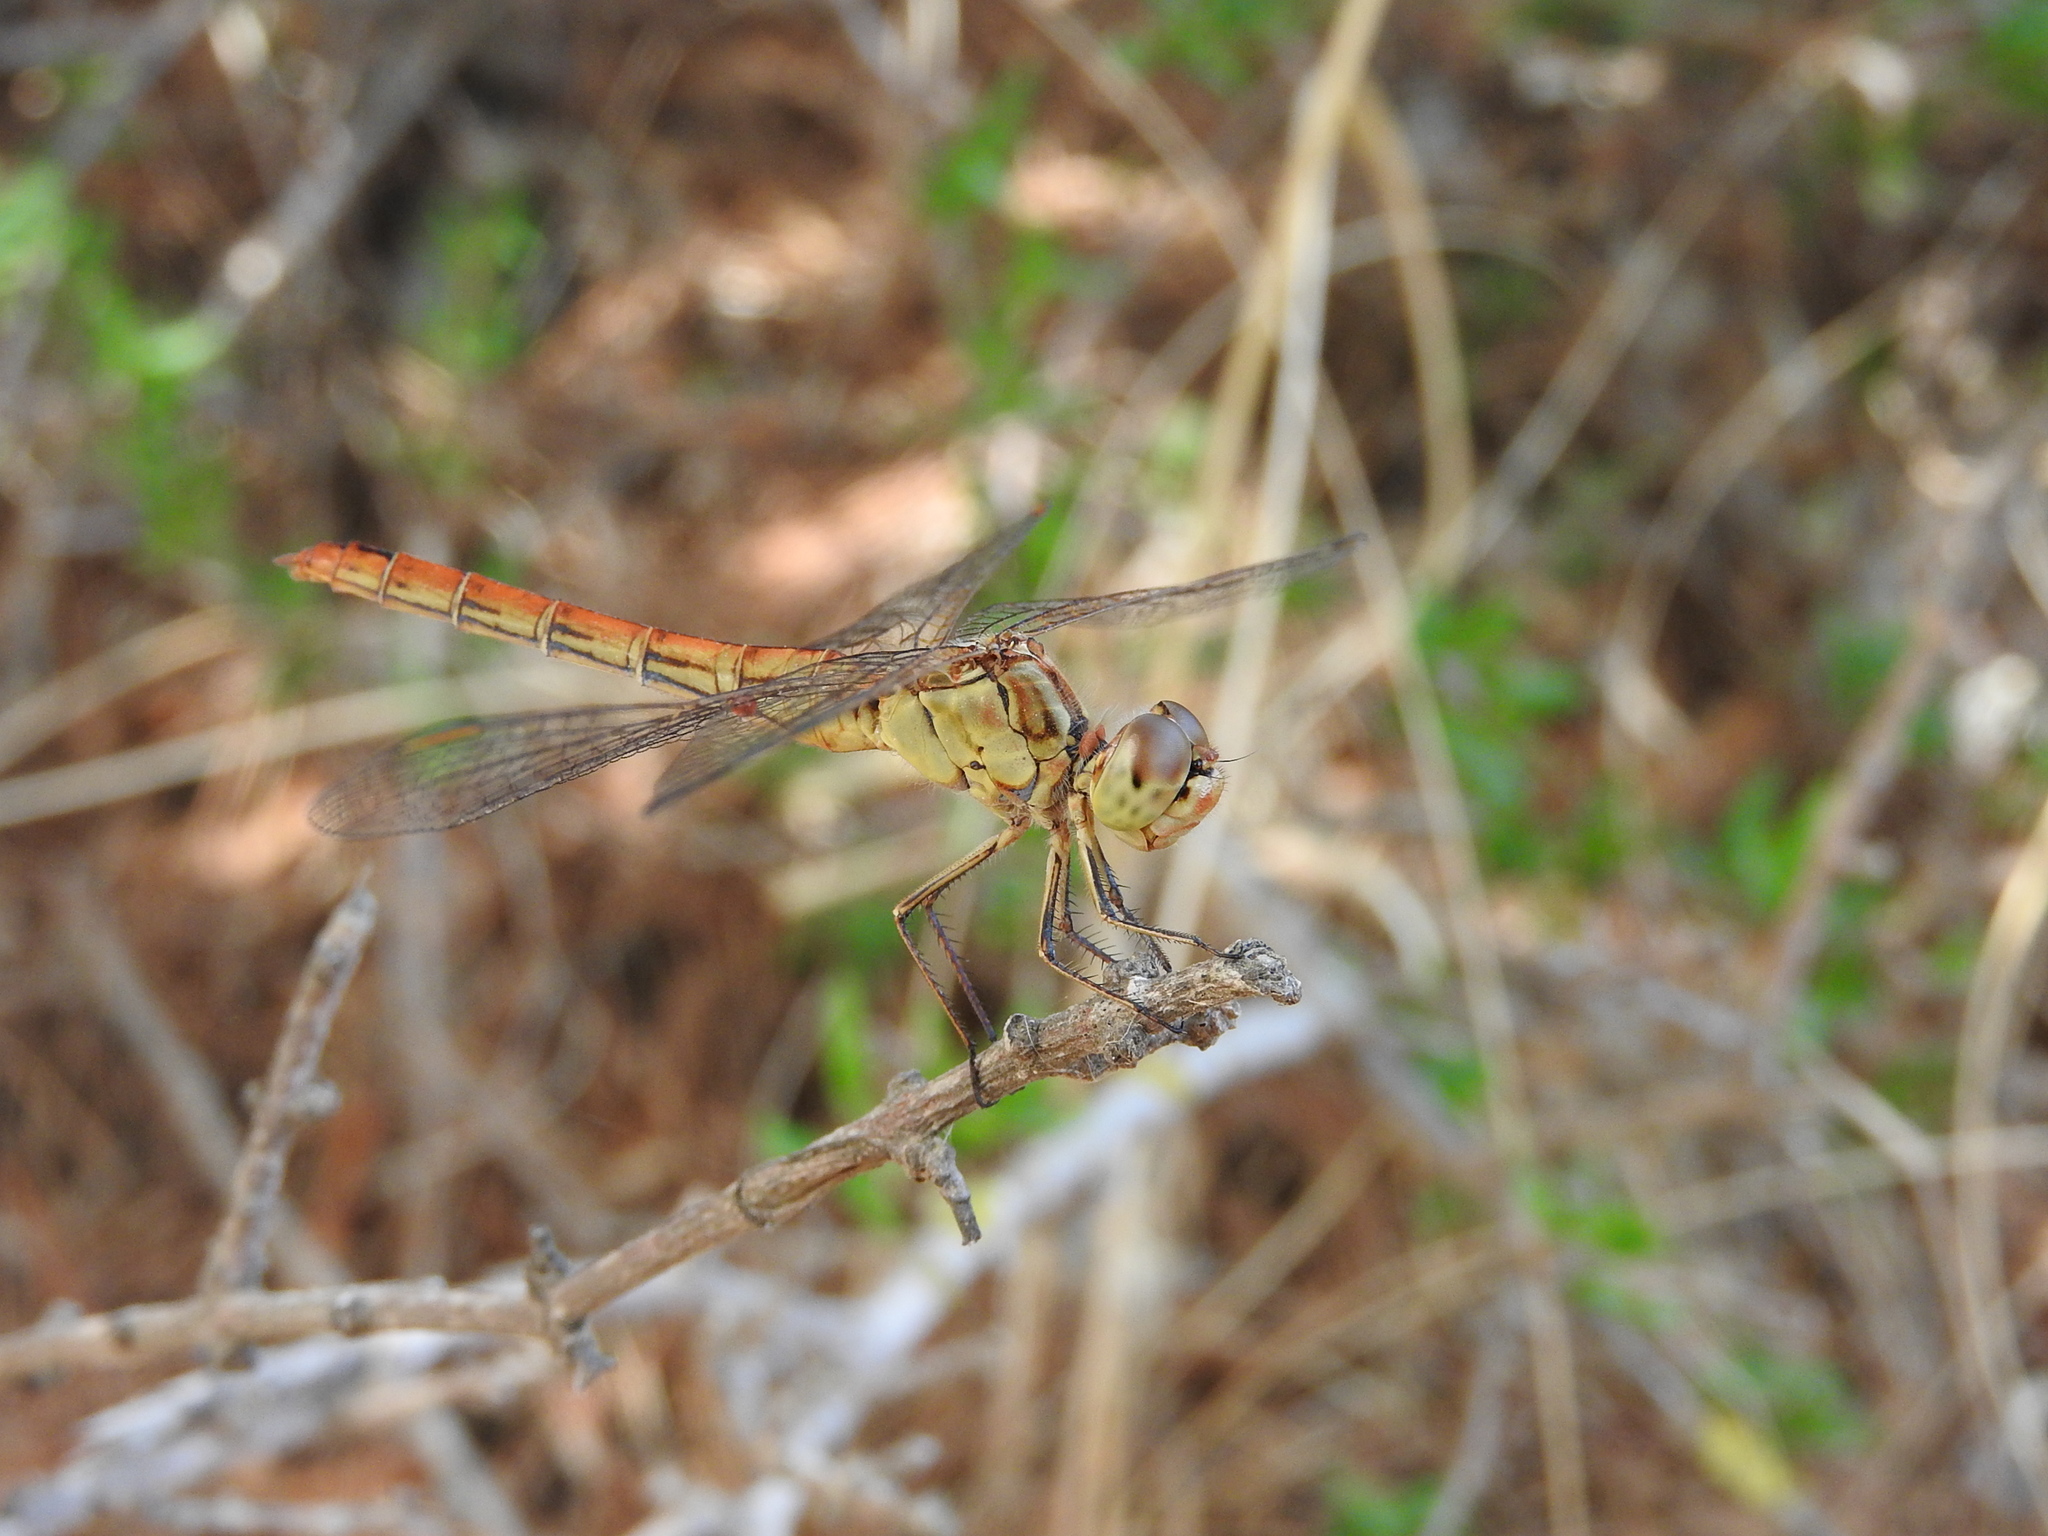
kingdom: Animalia
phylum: Arthropoda
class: Insecta
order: Odonata
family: Libellulidae
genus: Sympetrum
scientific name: Sympetrum meridionale
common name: Southern darter
